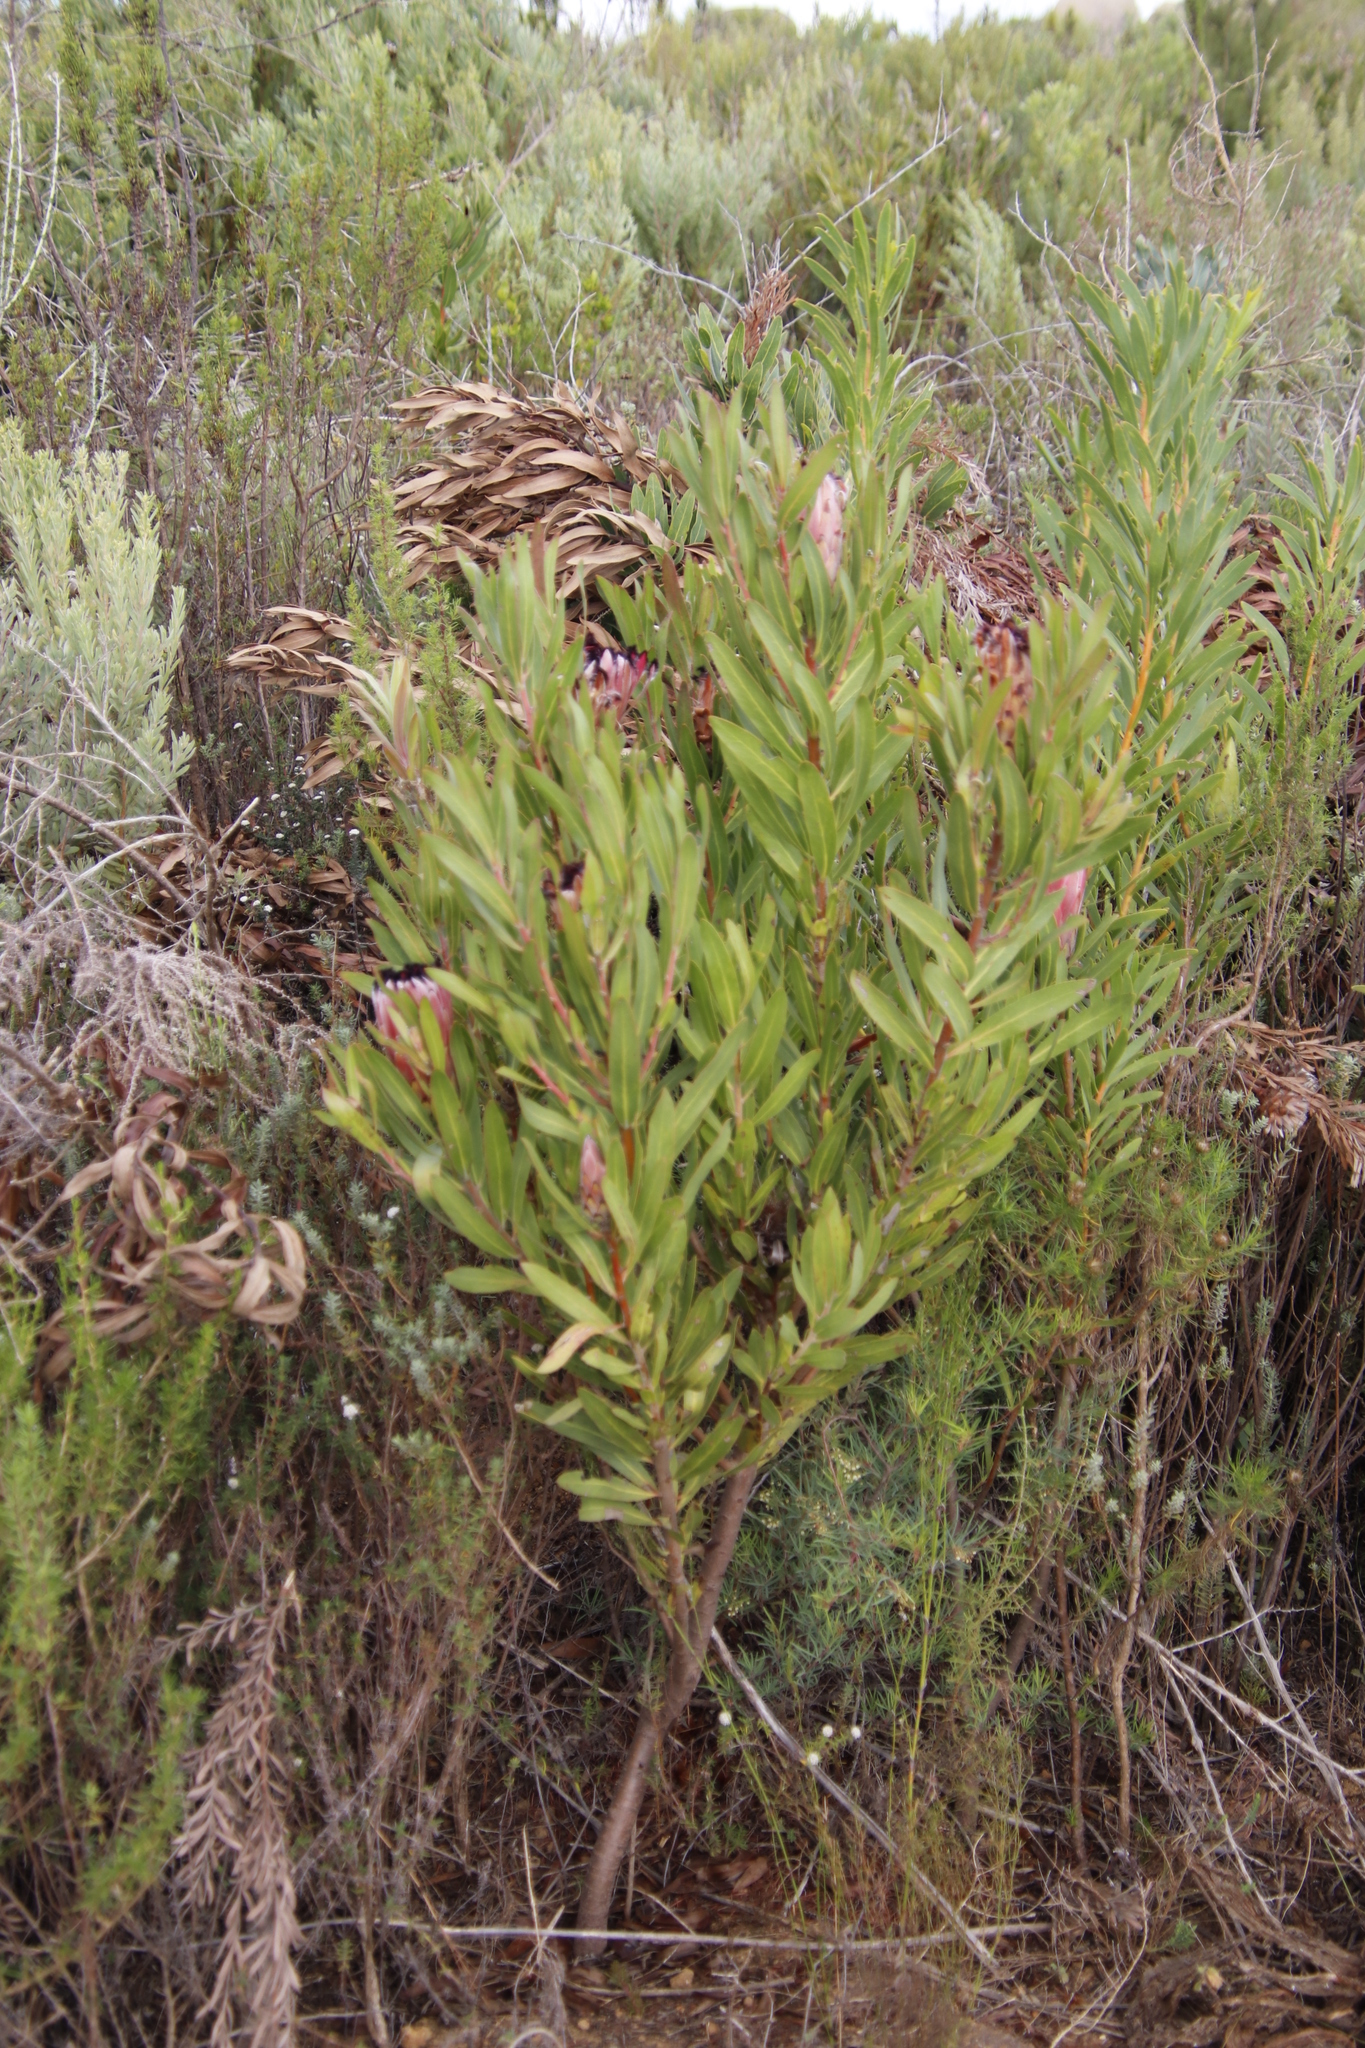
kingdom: Plantae
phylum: Tracheophyta
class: Magnoliopsida
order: Proteales
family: Proteaceae
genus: Protea
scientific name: Protea burchellii
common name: Burchell's sugarbush
